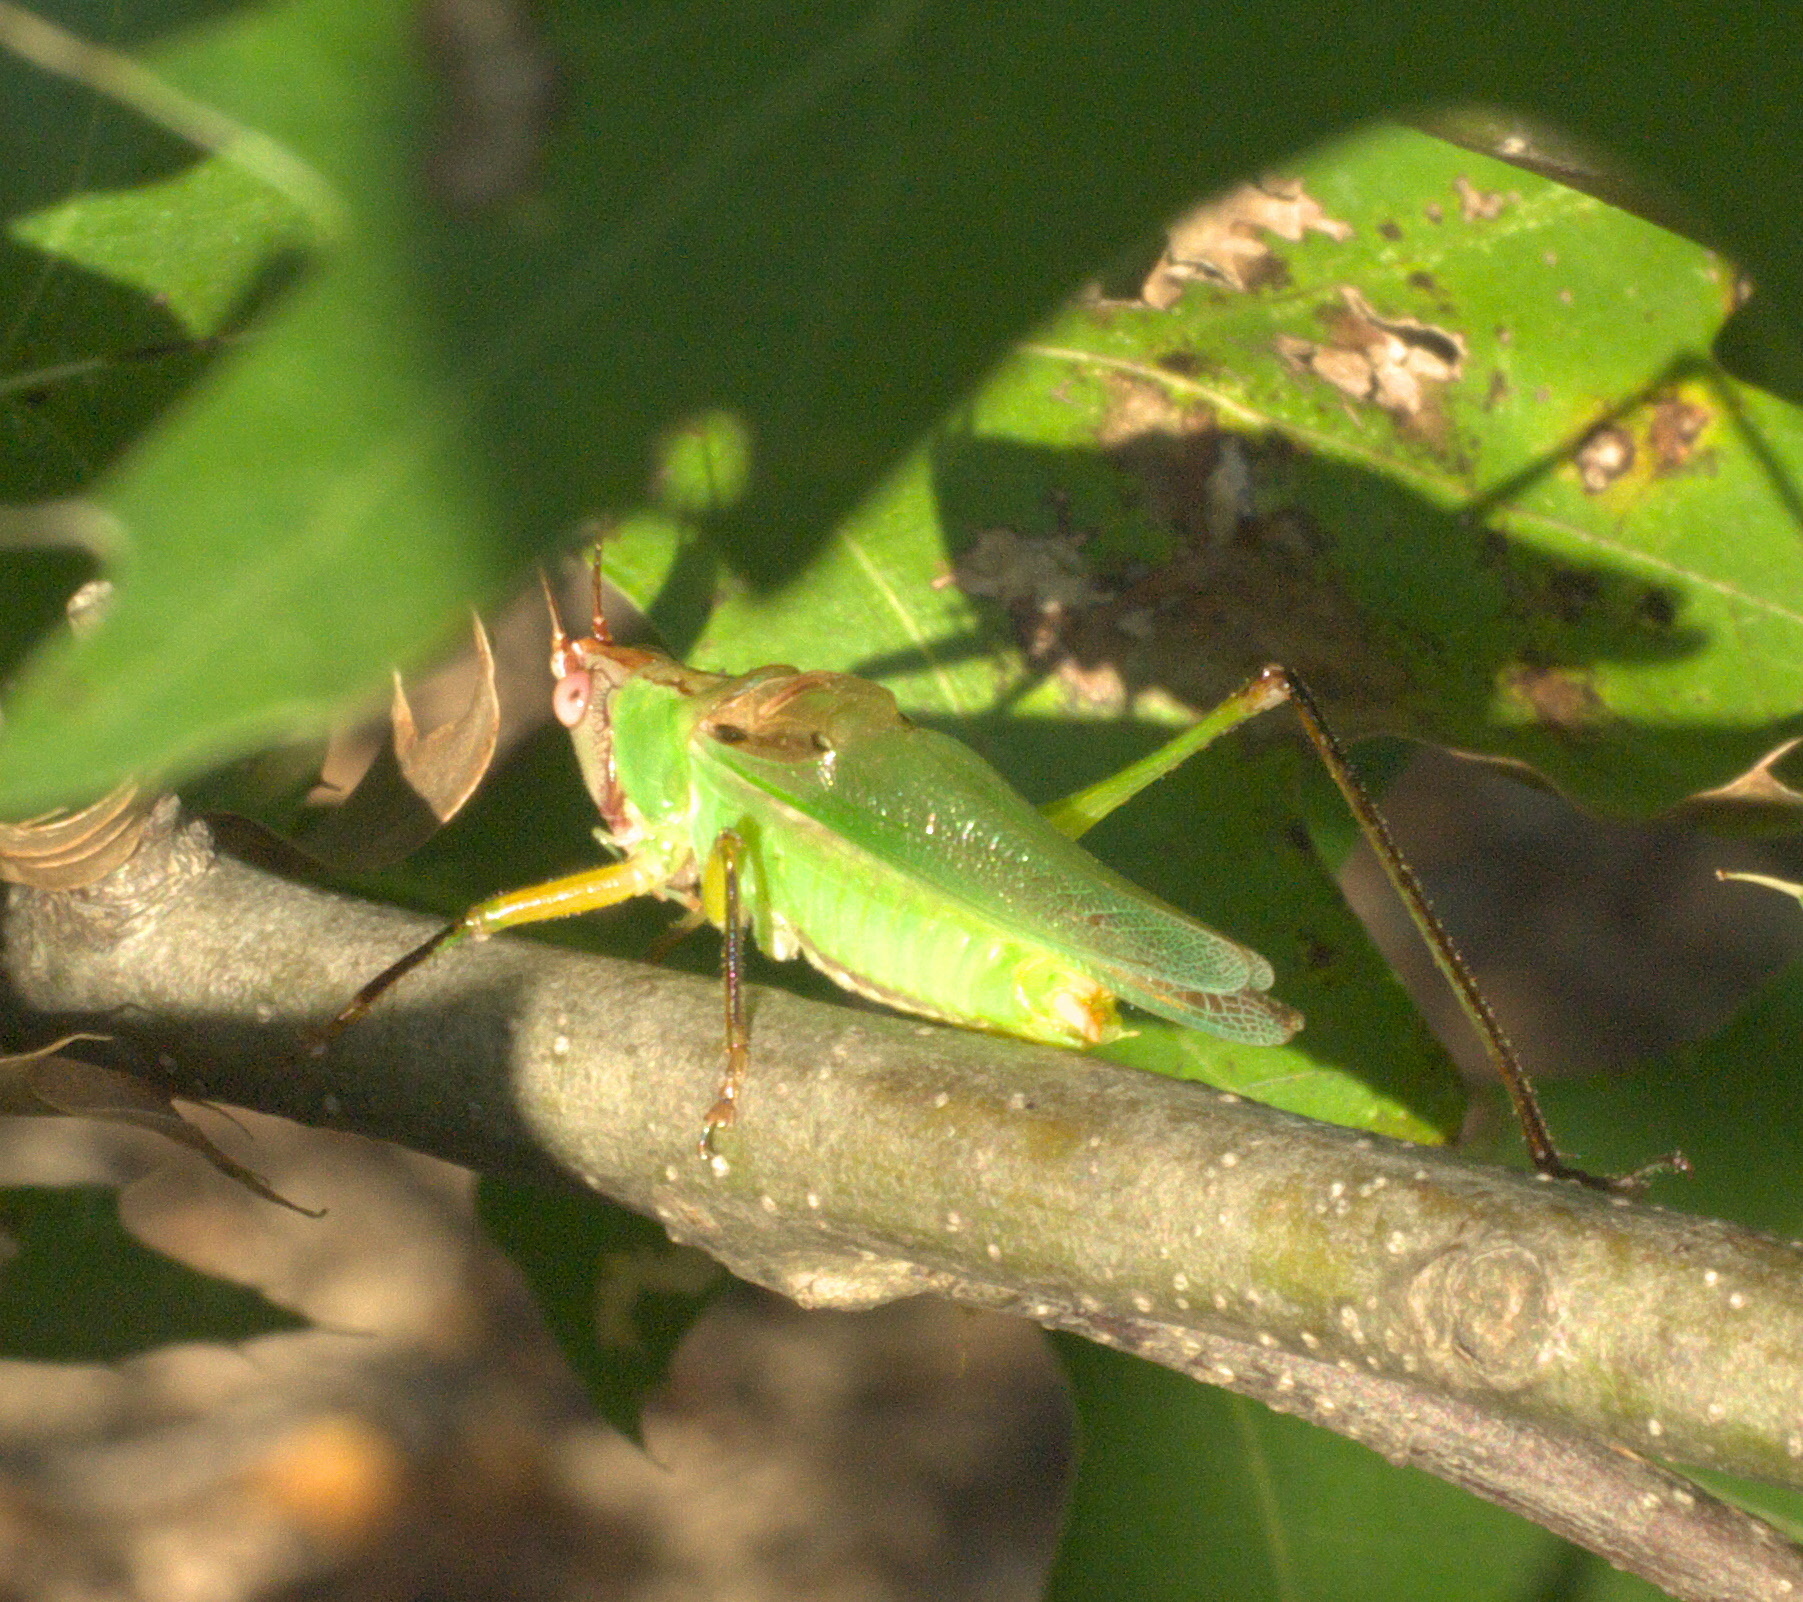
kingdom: Animalia
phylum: Arthropoda
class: Insecta
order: Orthoptera
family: Tettigoniidae
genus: Orchelimum
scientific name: Orchelimum nigripes
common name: Black-legged meadow katydid
